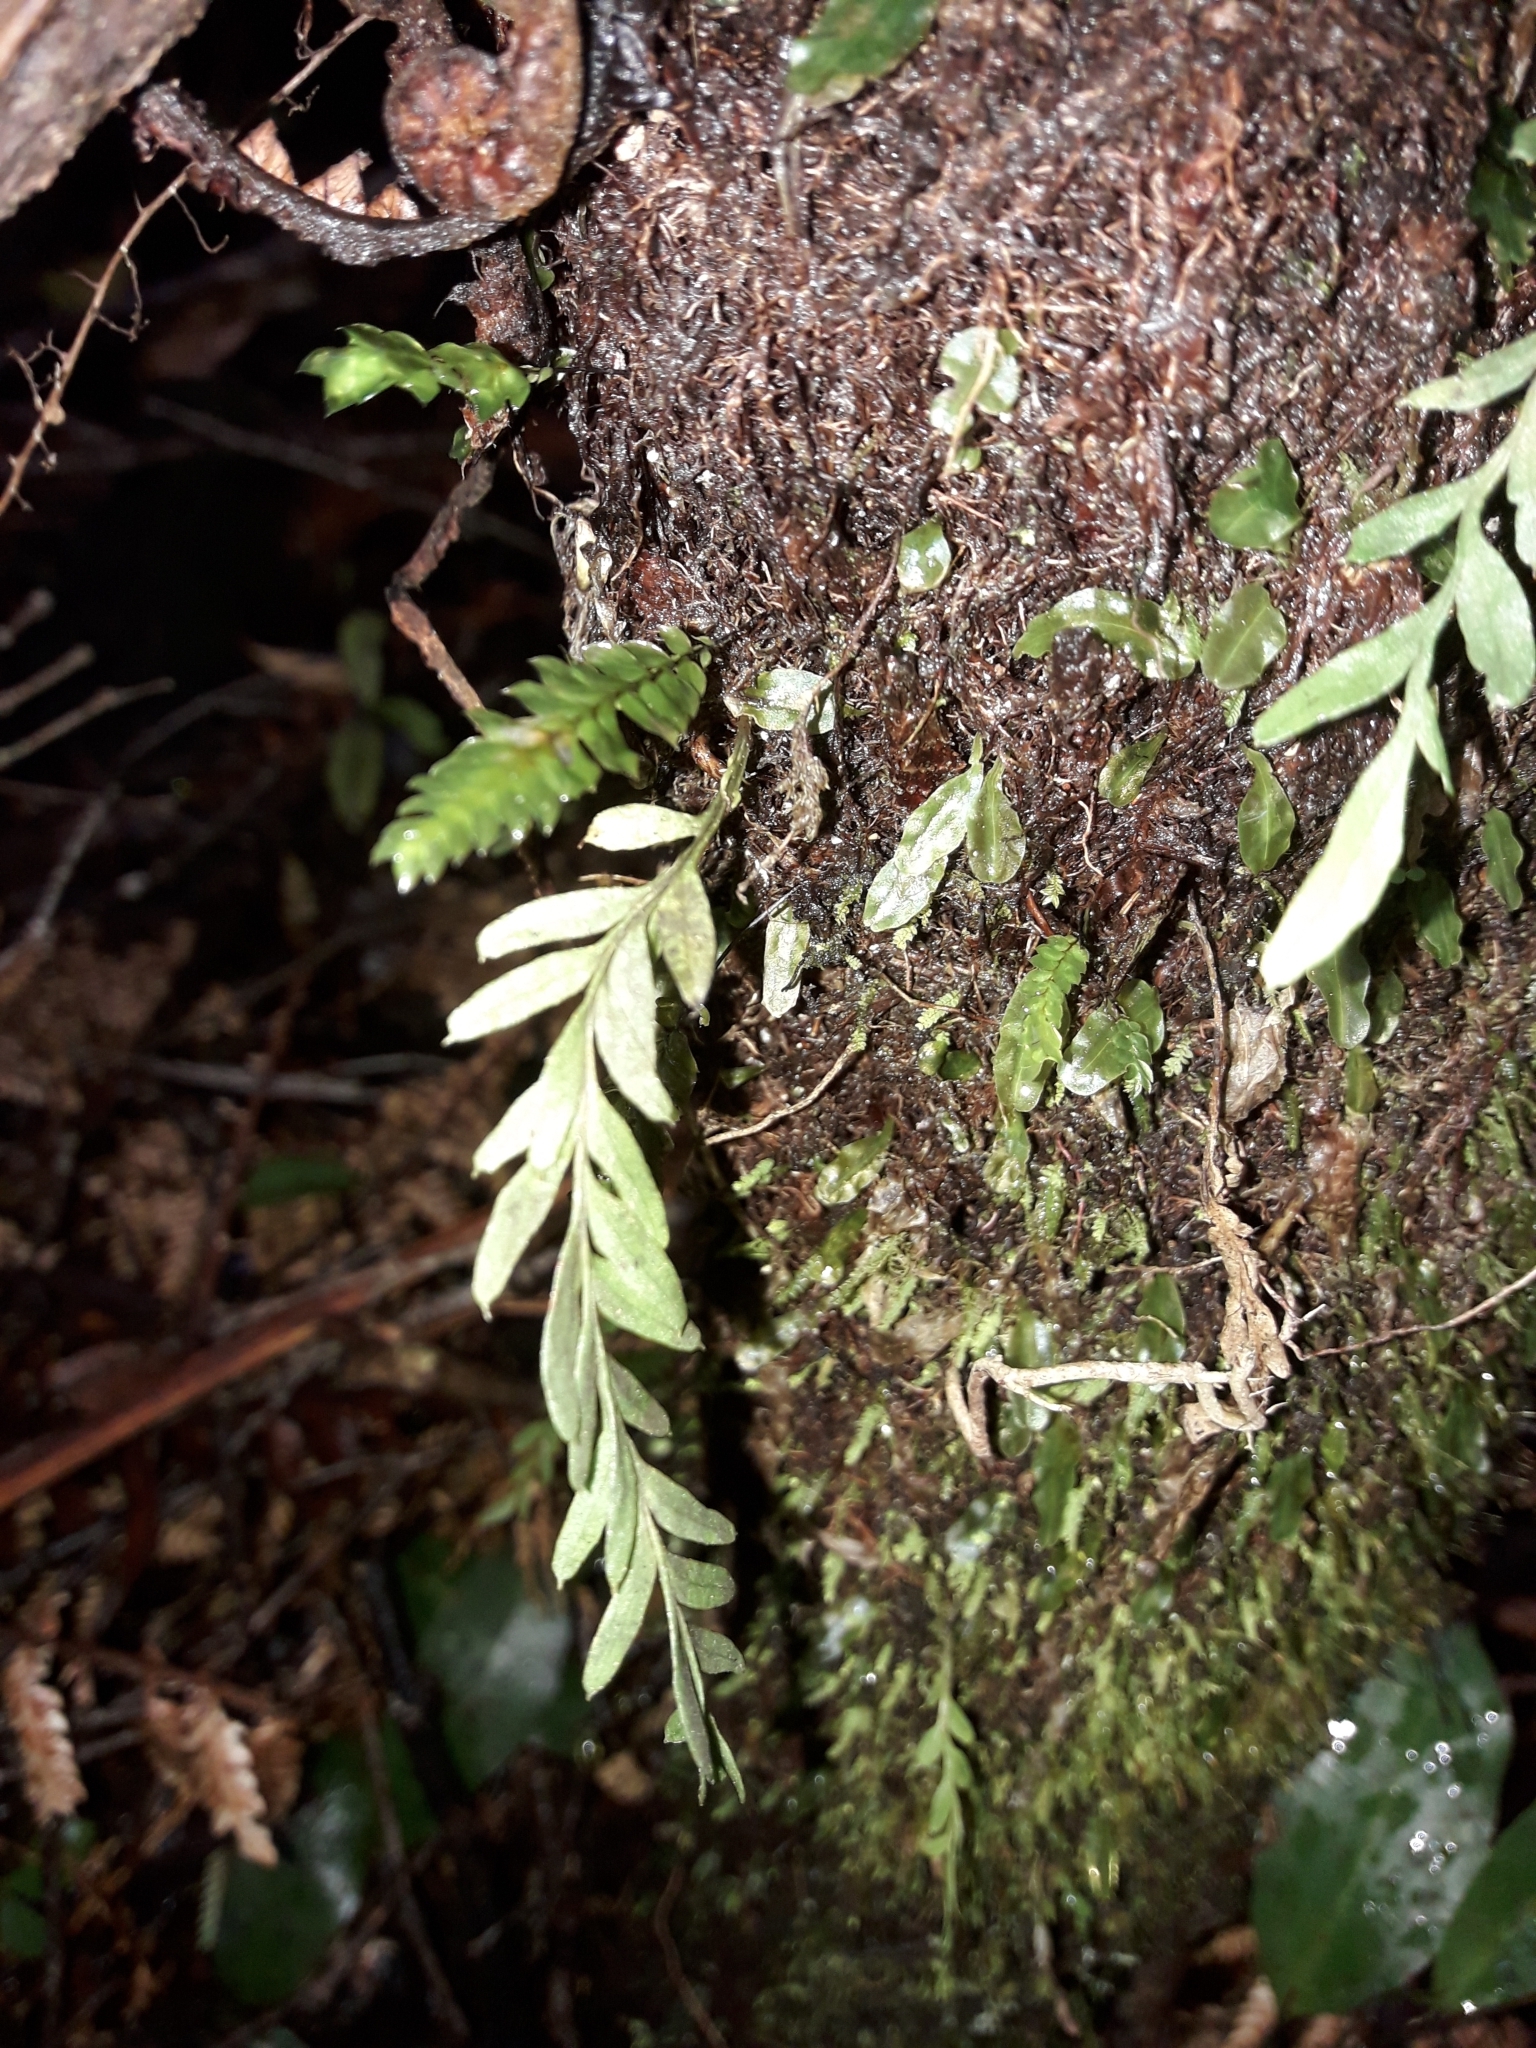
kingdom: Plantae
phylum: Tracheophyta
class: Polypodiopsida
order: Psilotales
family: Psilotaceae
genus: Tmesipteris
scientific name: Tmesipteris elongata
